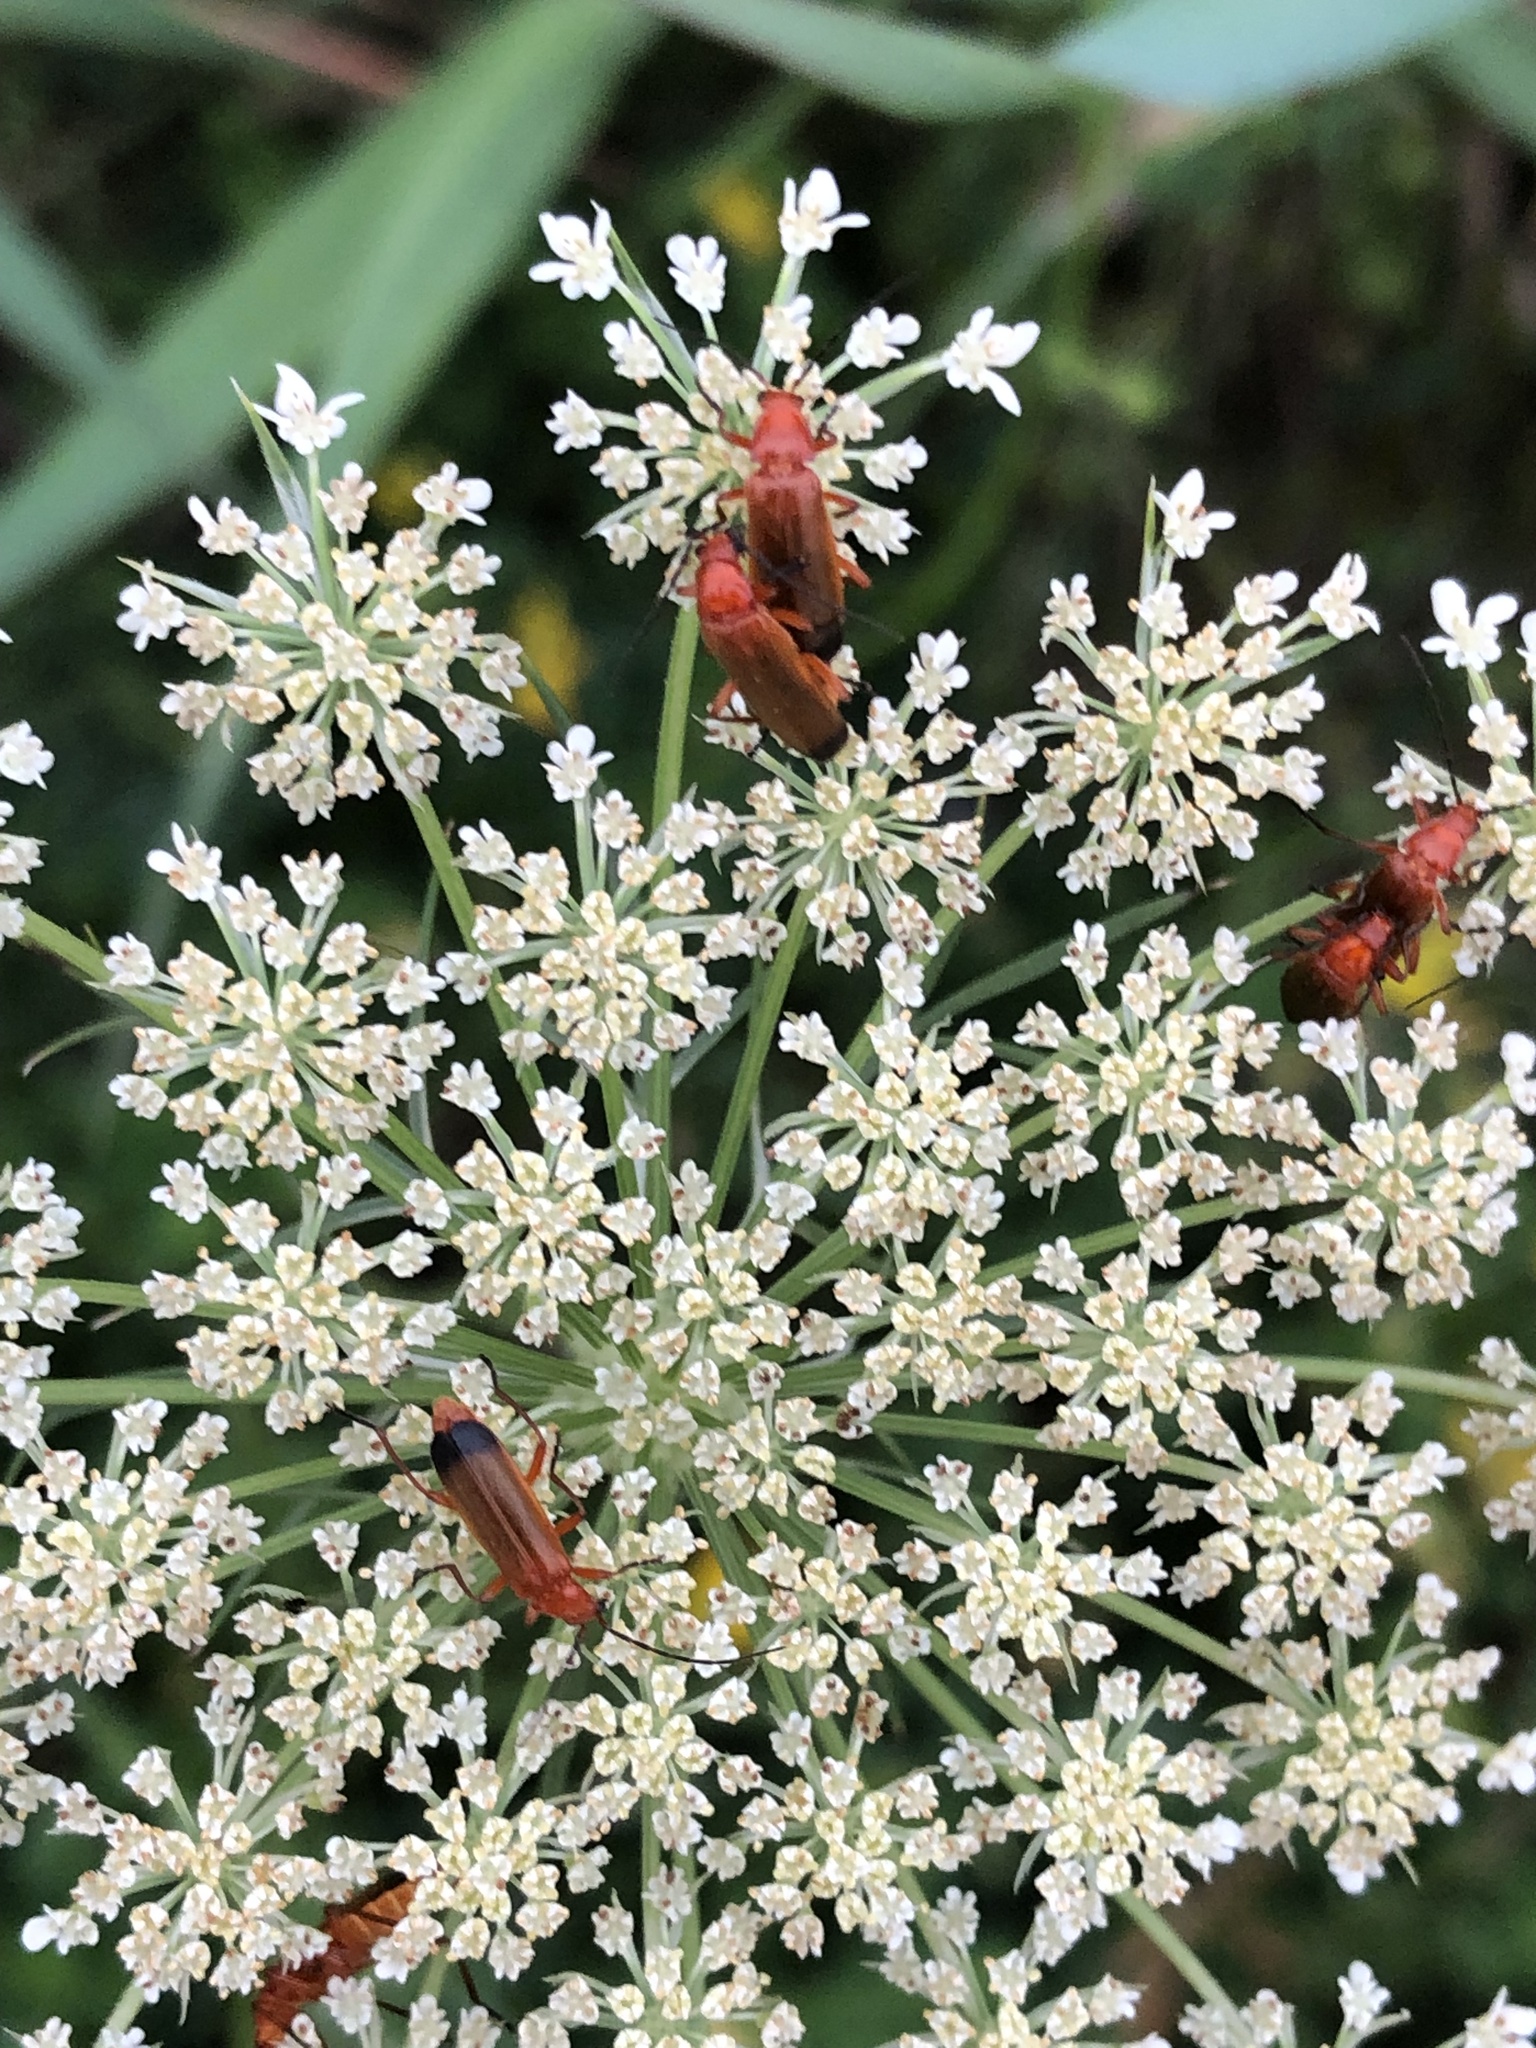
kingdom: Animalia
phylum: Arthropoda
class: Insecta
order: Coleoptera
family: Cantharidae
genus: Rhagonycha
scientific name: Rhagonycha fulva
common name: Common red soldier beetle
